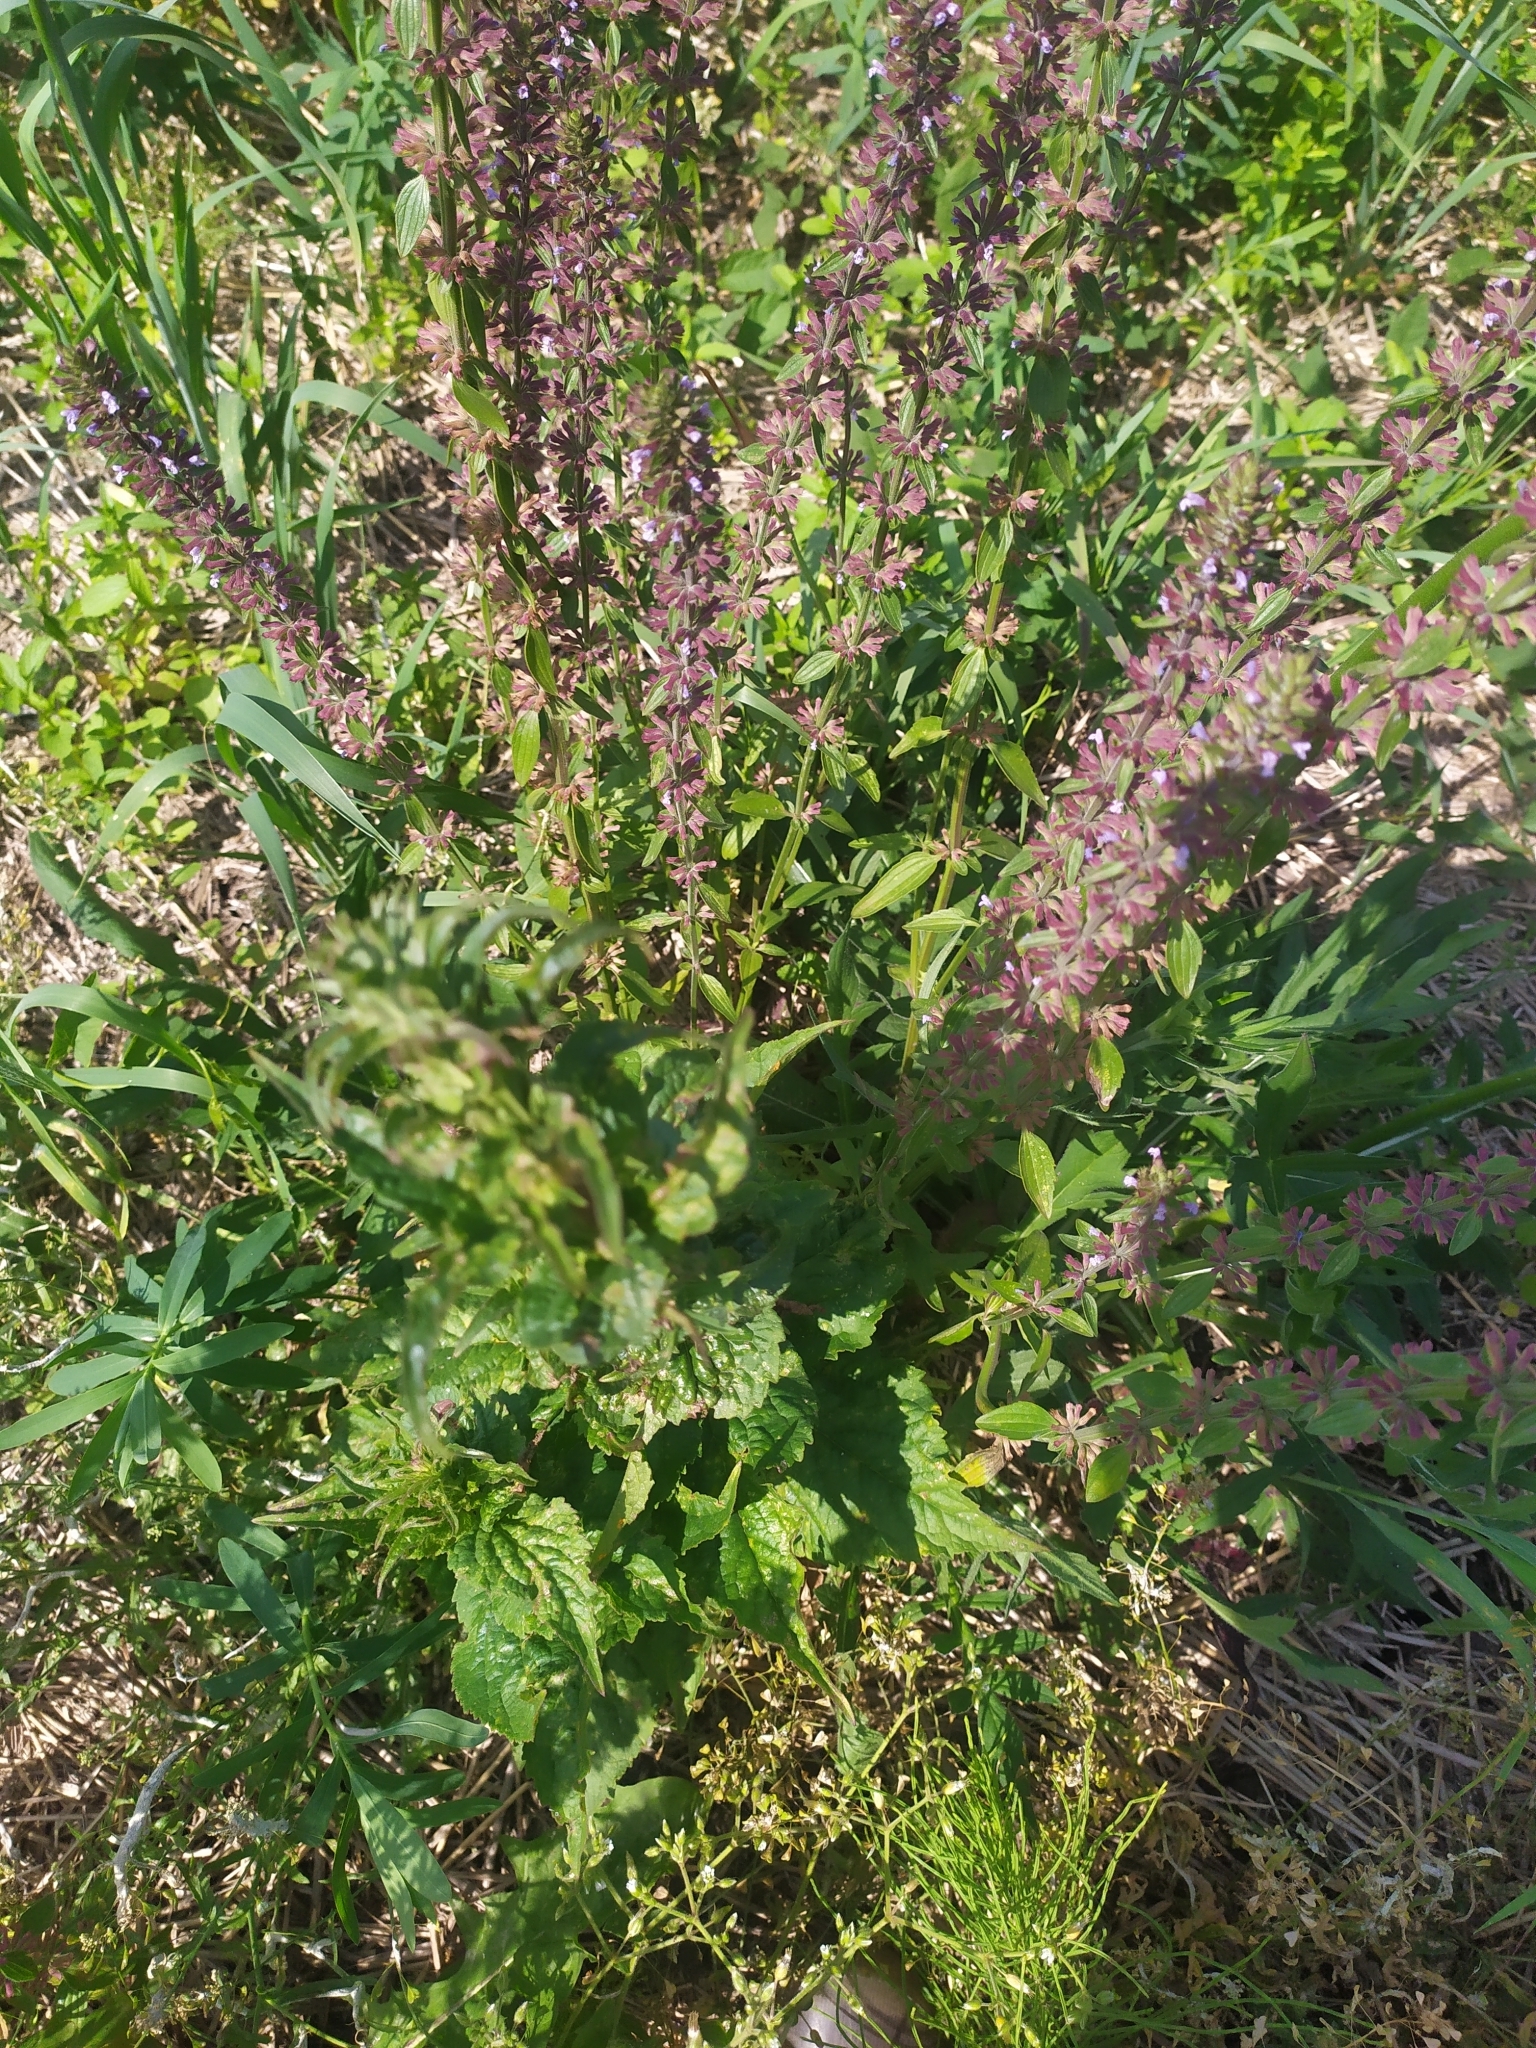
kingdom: Plantae
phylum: Tracheophyta
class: Magnoliopsida
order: Lamiales
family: Lamiaceae
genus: Dracocephalum
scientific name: Dracocephalum thymiflorum
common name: Thymeleaf dragonhead
